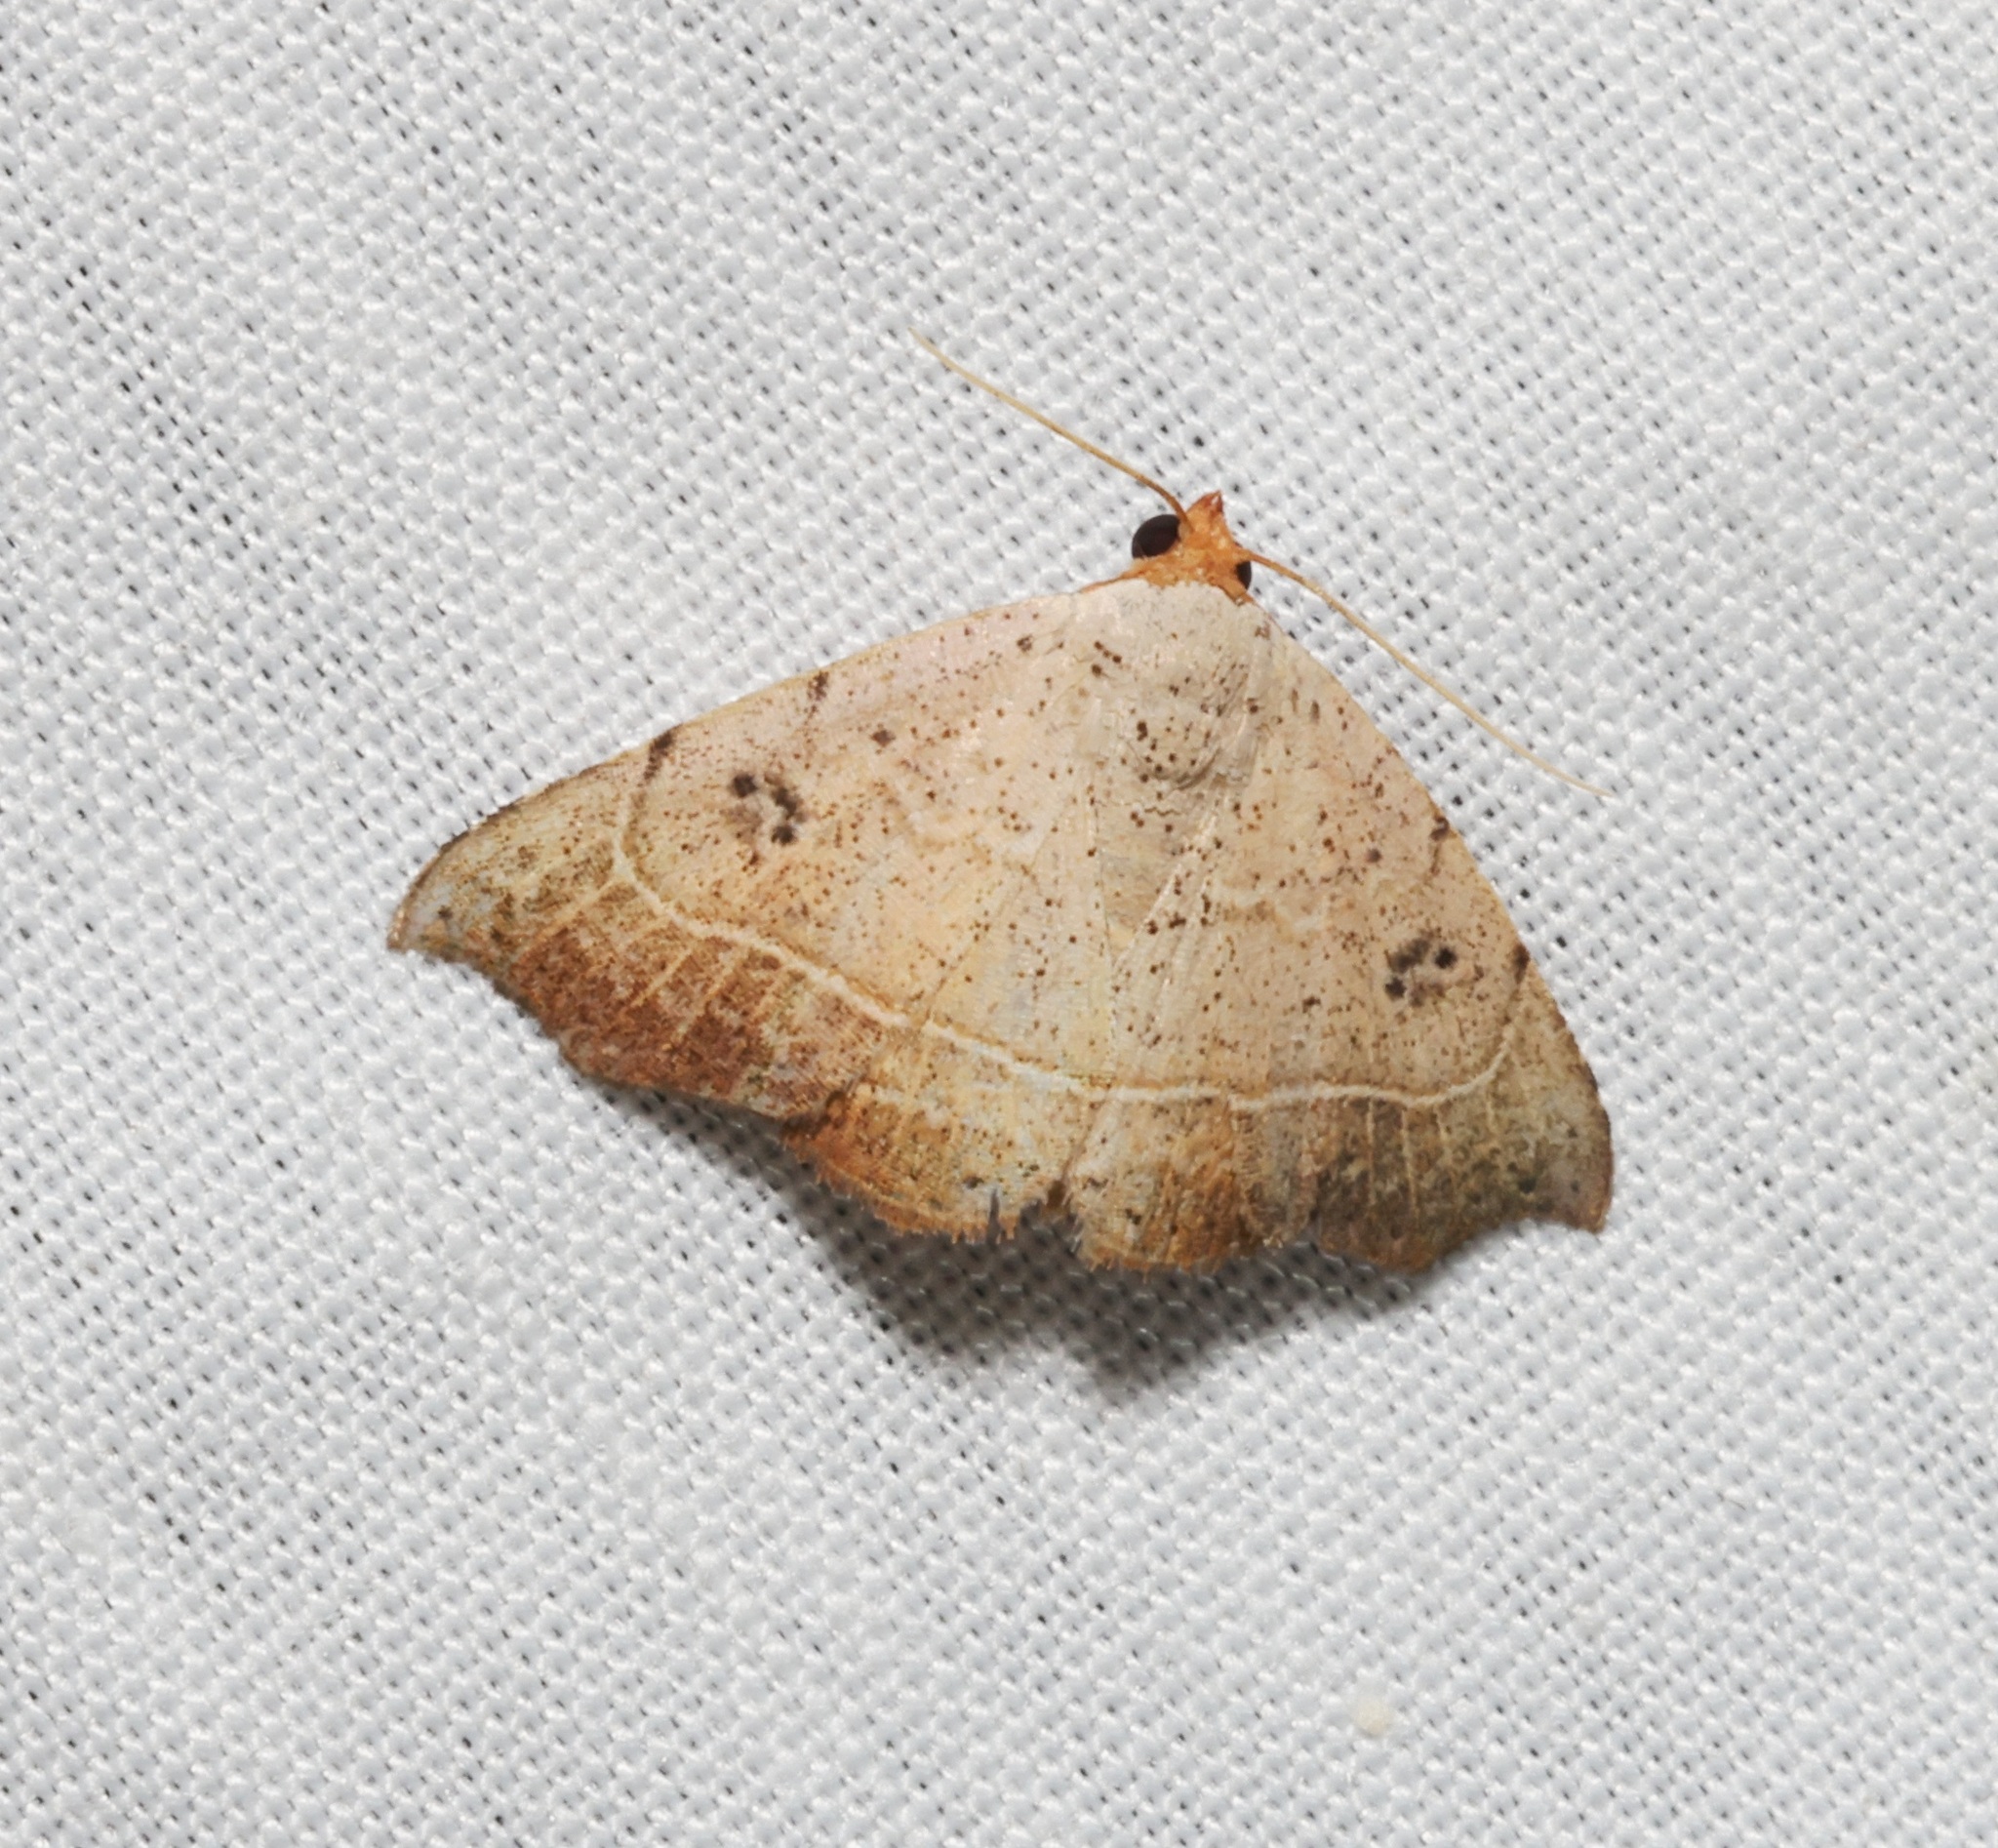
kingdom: Animalia
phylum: Arthropoda
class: Insecta
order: Lepidoptera
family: Erebidae
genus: Laspeyria
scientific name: Laspeyria ruficeps
